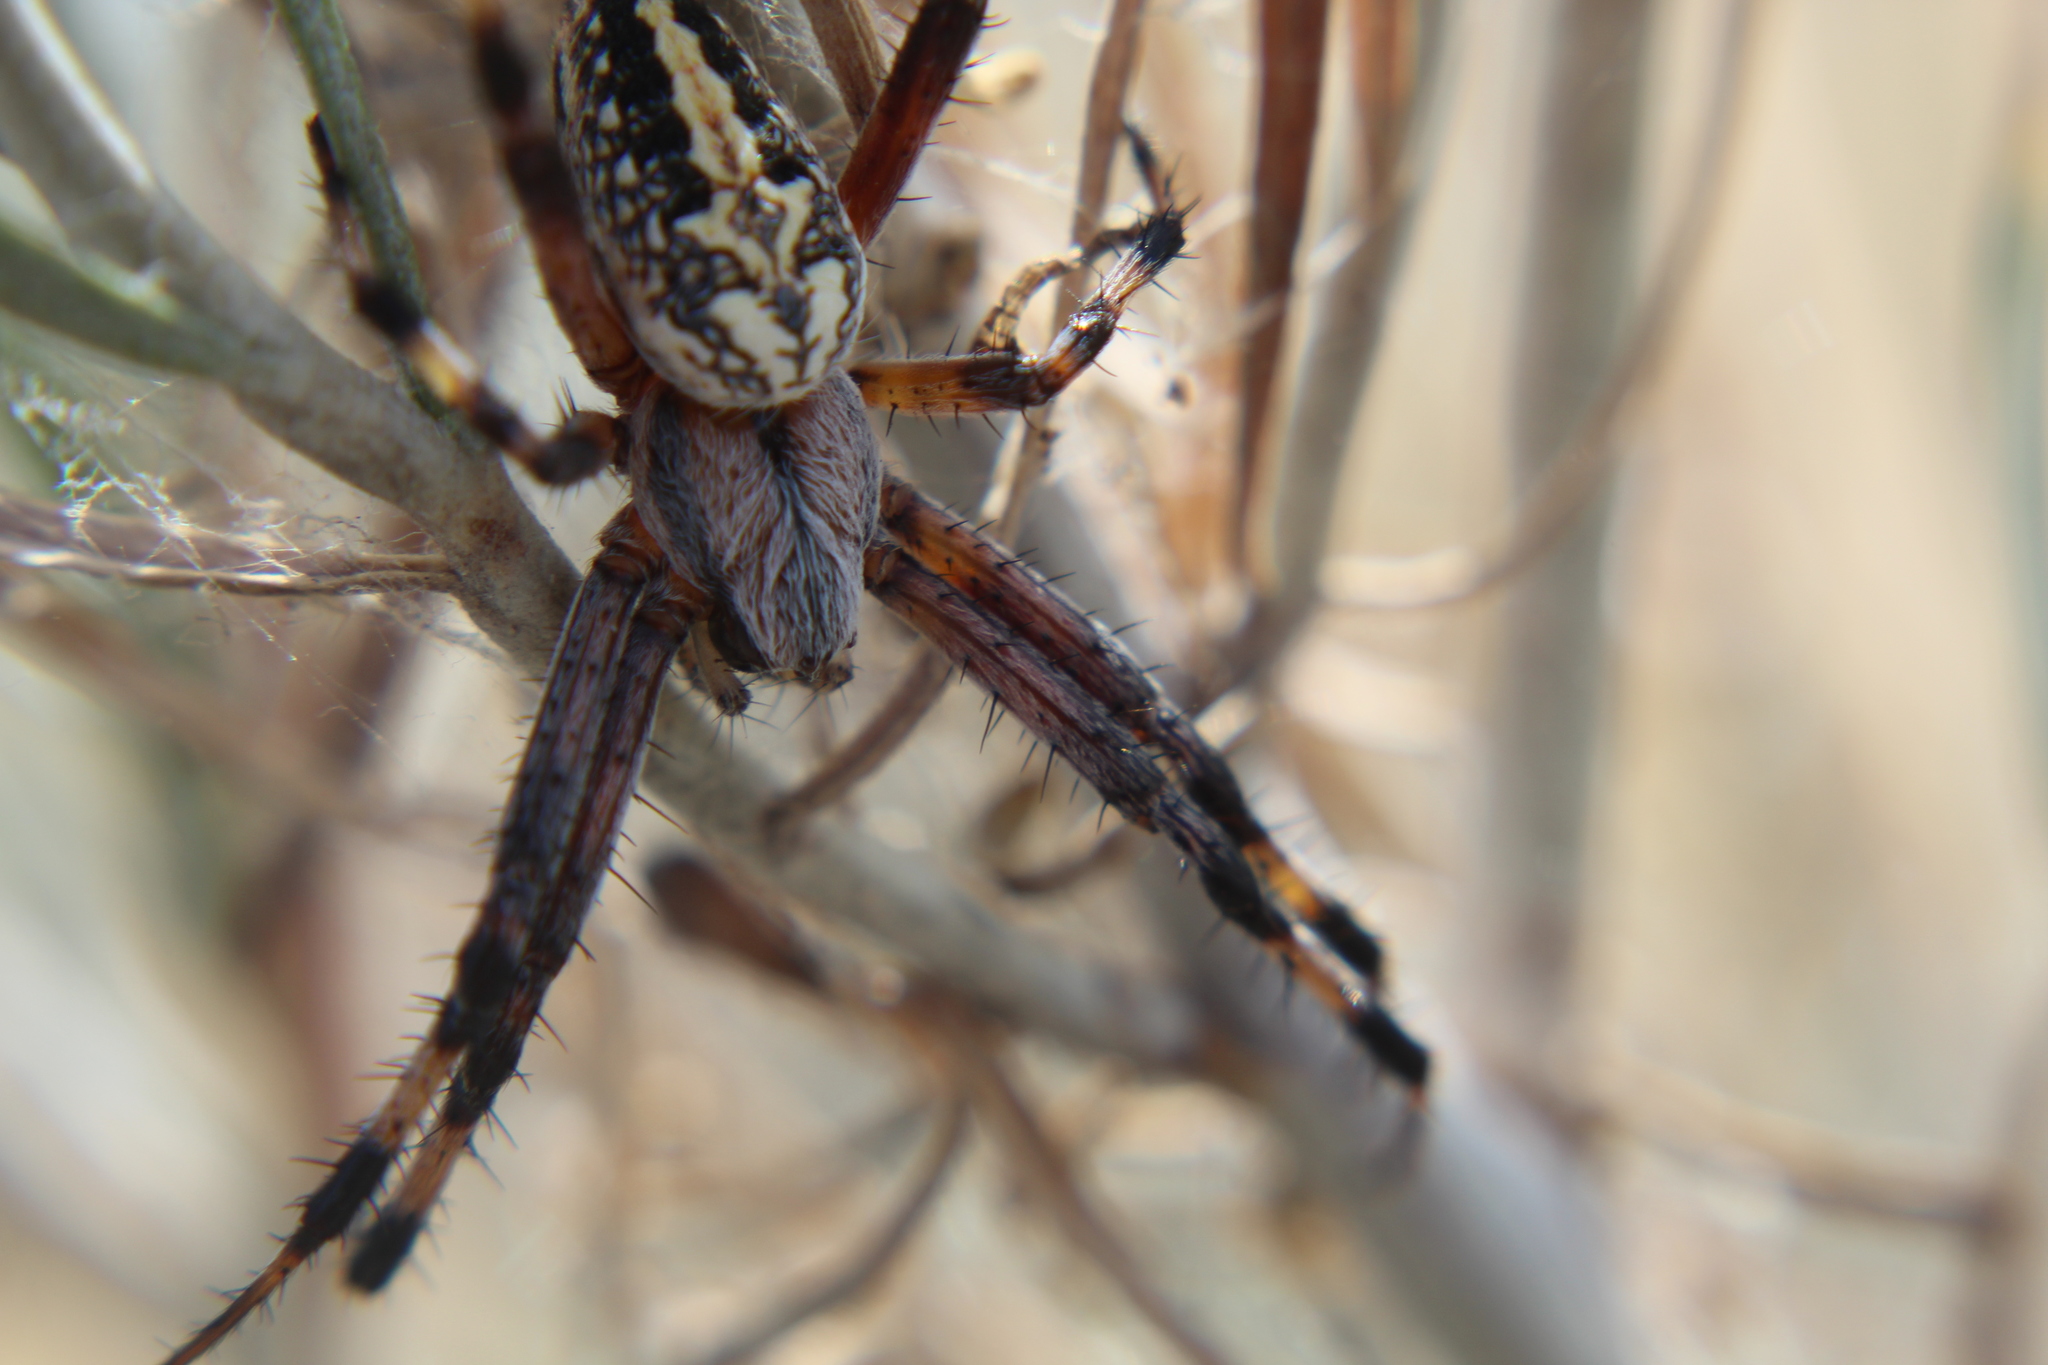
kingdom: Animalia
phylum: Arthropoda
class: Arachnida
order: Araneae
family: Araneidae
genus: Neoscona
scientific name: Neoscona oaxacensis
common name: Orb weavers
